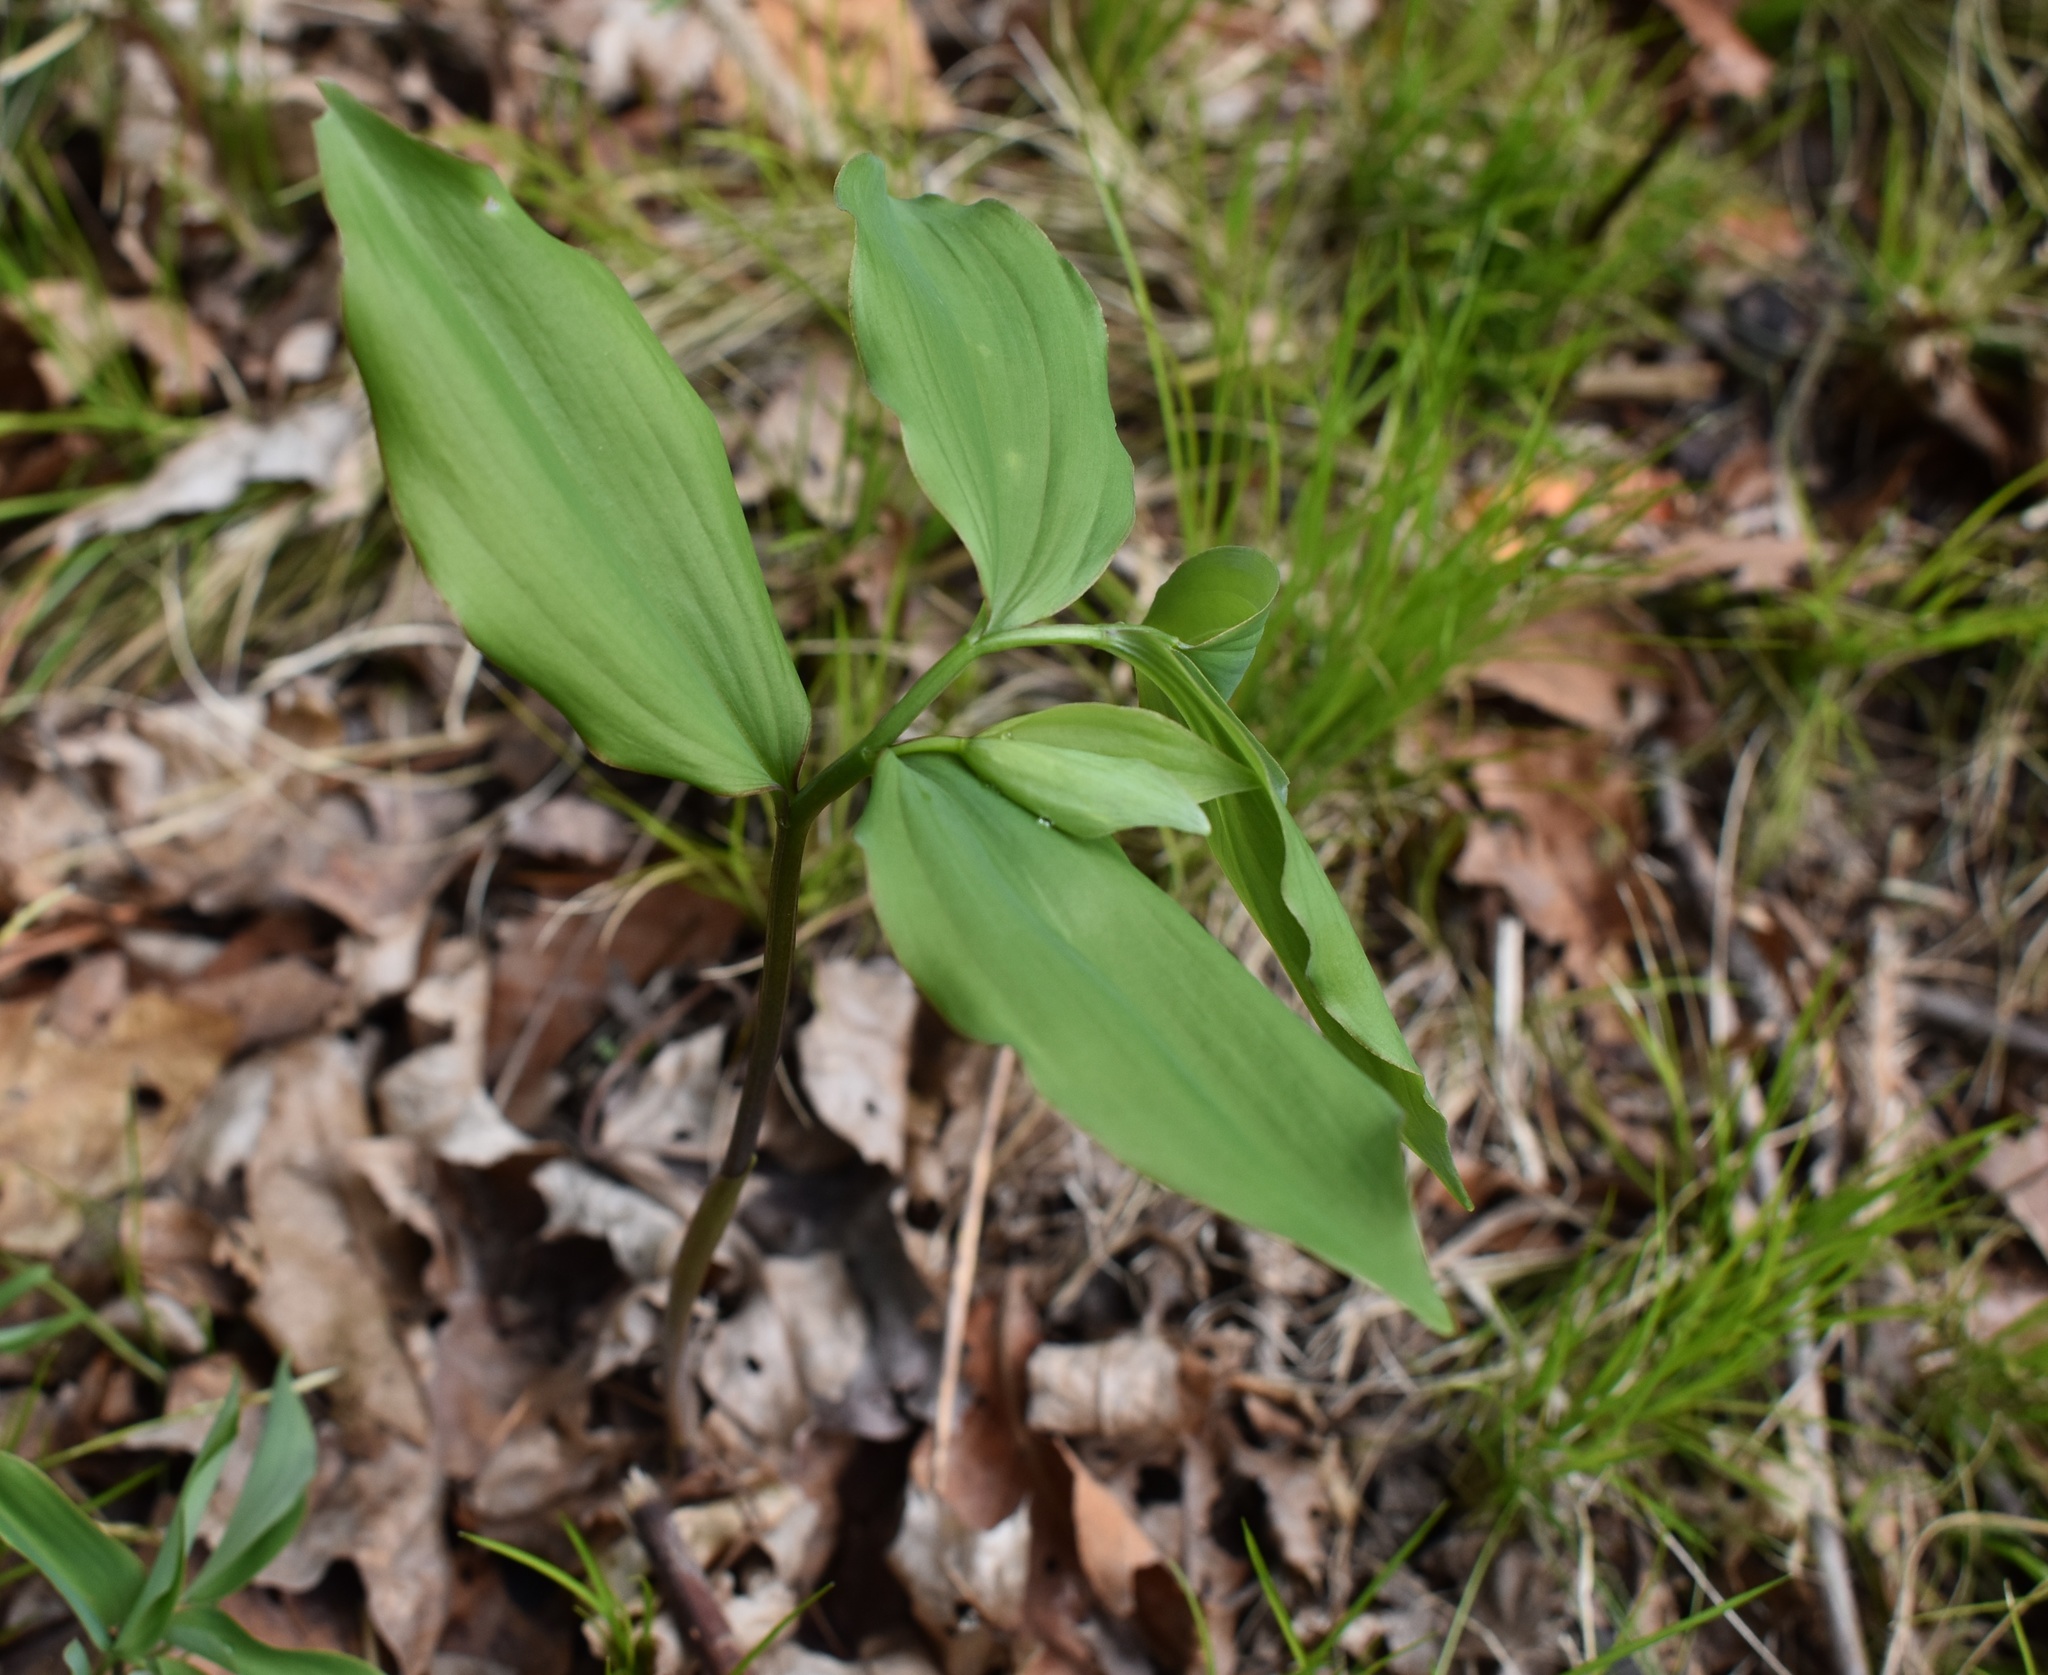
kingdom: Plantae
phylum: Tracheophyta
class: Liliopsida
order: Asparagales
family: Asparagaceae
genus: Polygonatum
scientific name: Polygonatum involucratum
